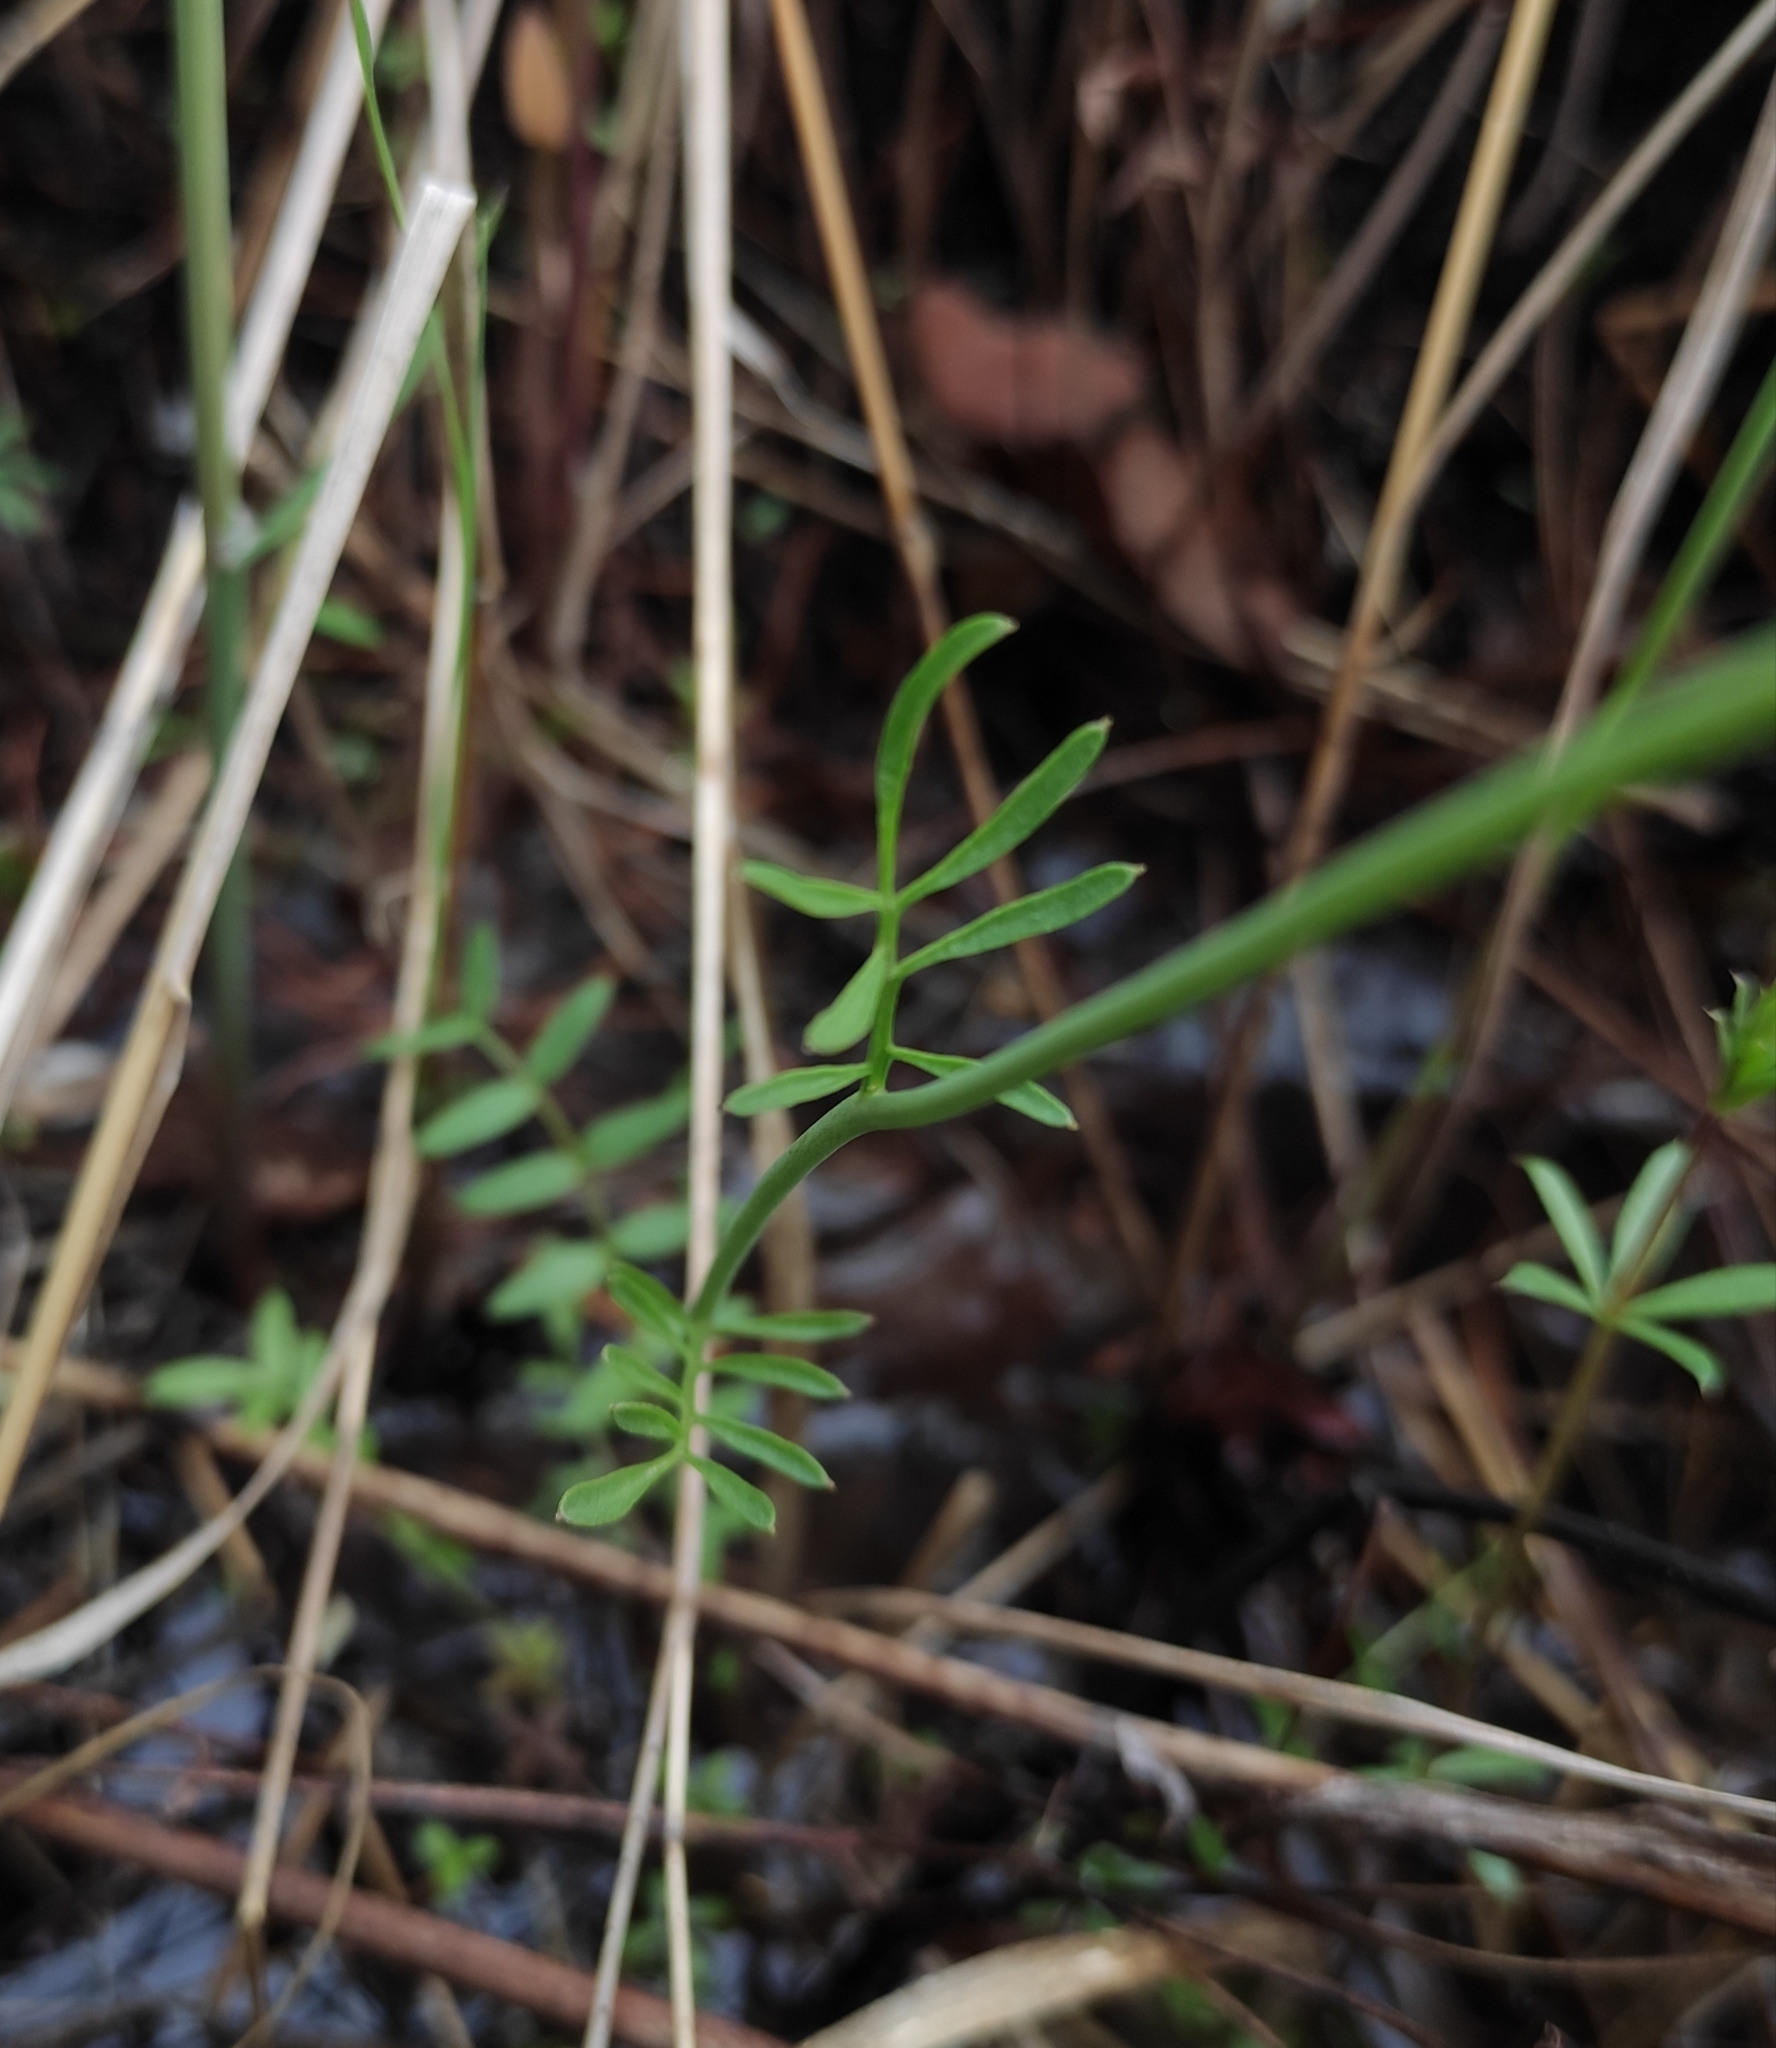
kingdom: Plantae
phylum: Tracheophyta
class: Magnoliopsida
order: Brassicales
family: Brassicaceae
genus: Cardamine
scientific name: Cardamine pratensis
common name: Cuckoo flower
